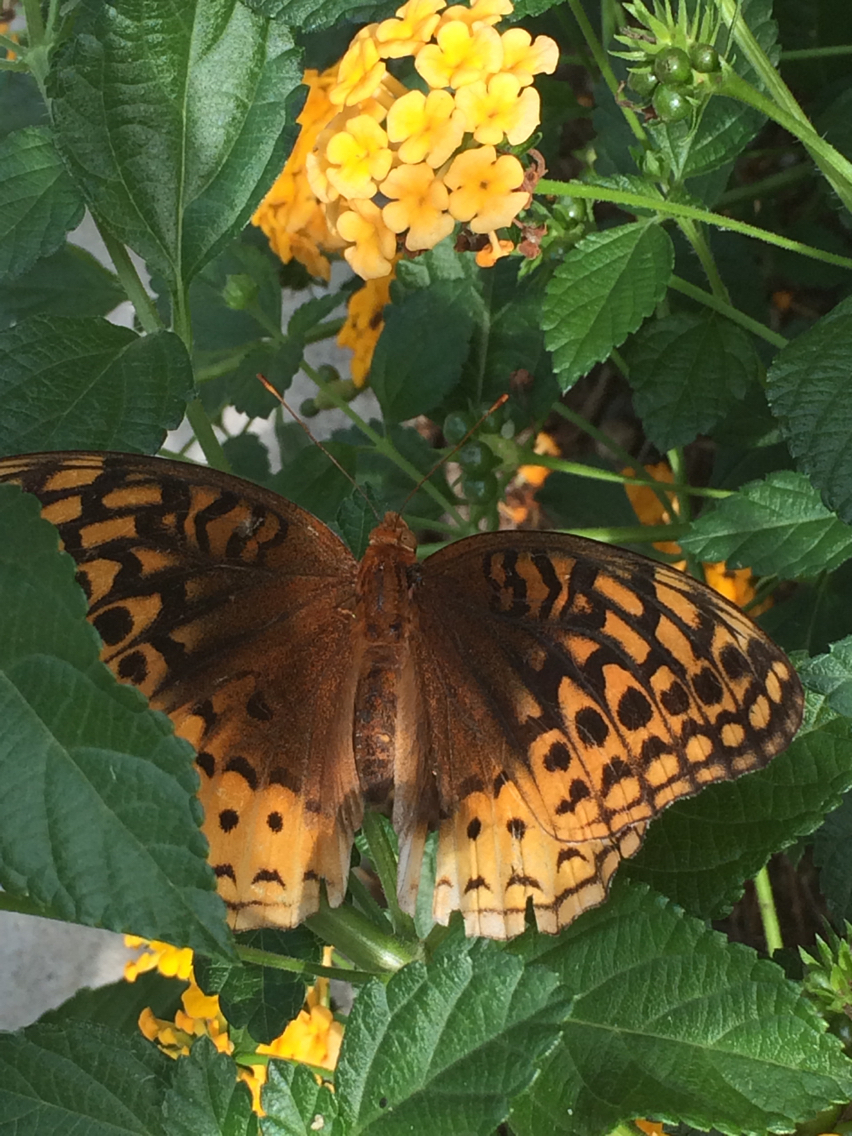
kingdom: Animalia
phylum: Arthropoda
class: Insecta
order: Lepidoptera
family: Nymphalidae
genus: Speyeria
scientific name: Speyeria cybele
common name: Great spangled fritillary
